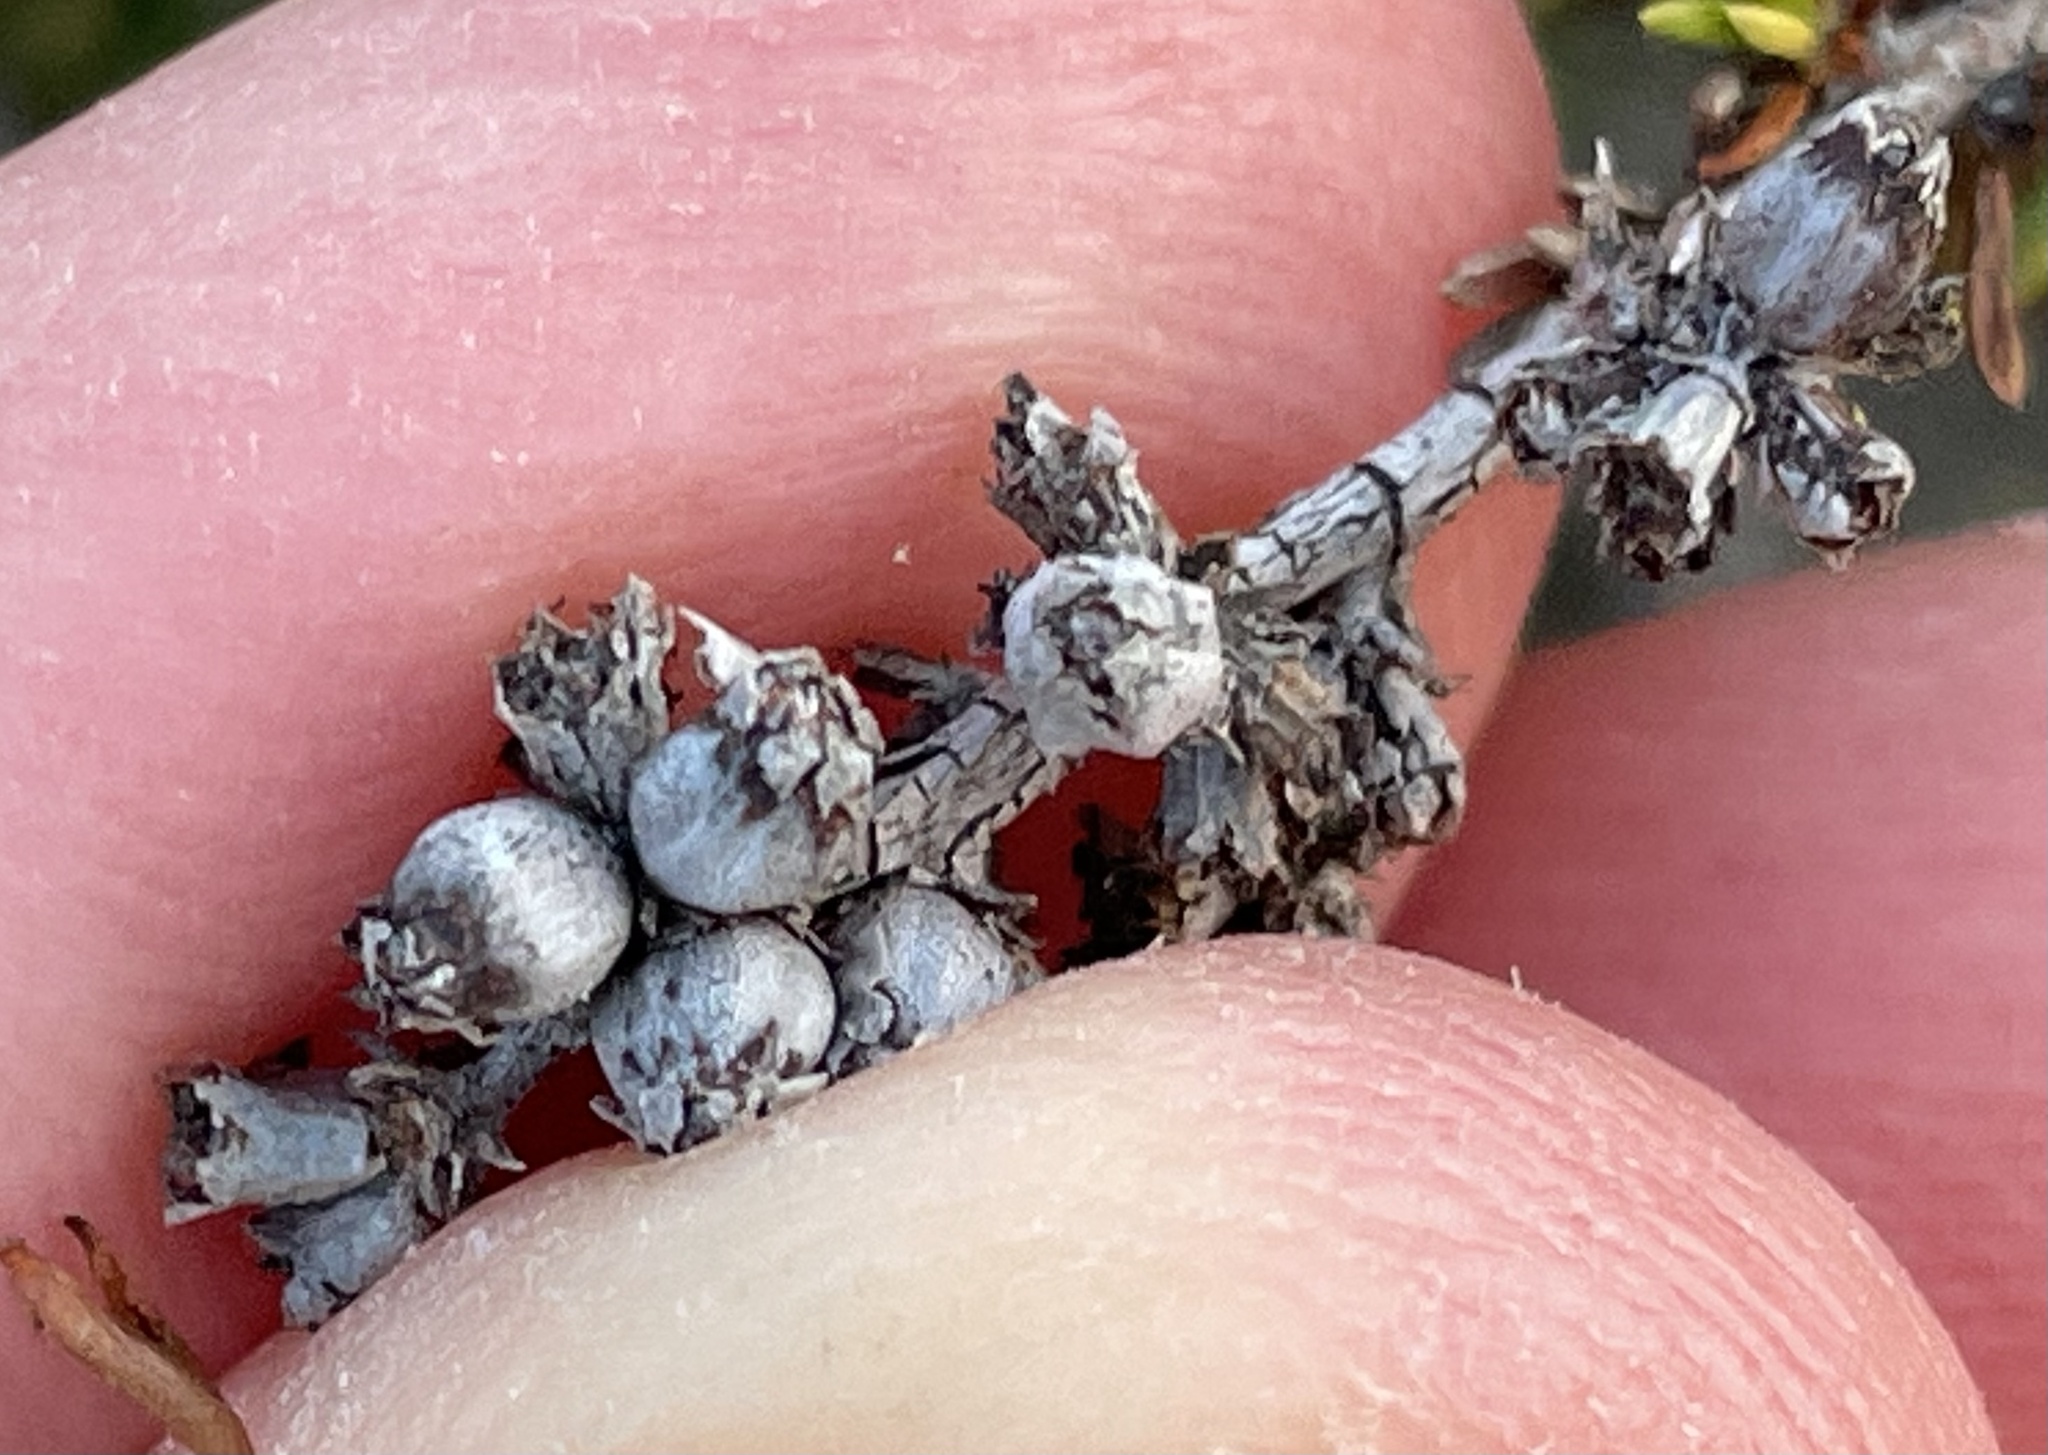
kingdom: Animalia
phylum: Arthropoda
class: Insecta
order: Diptera
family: Cecidomyiidae
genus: Asphondylia
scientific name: Asphondylia adenostoma
